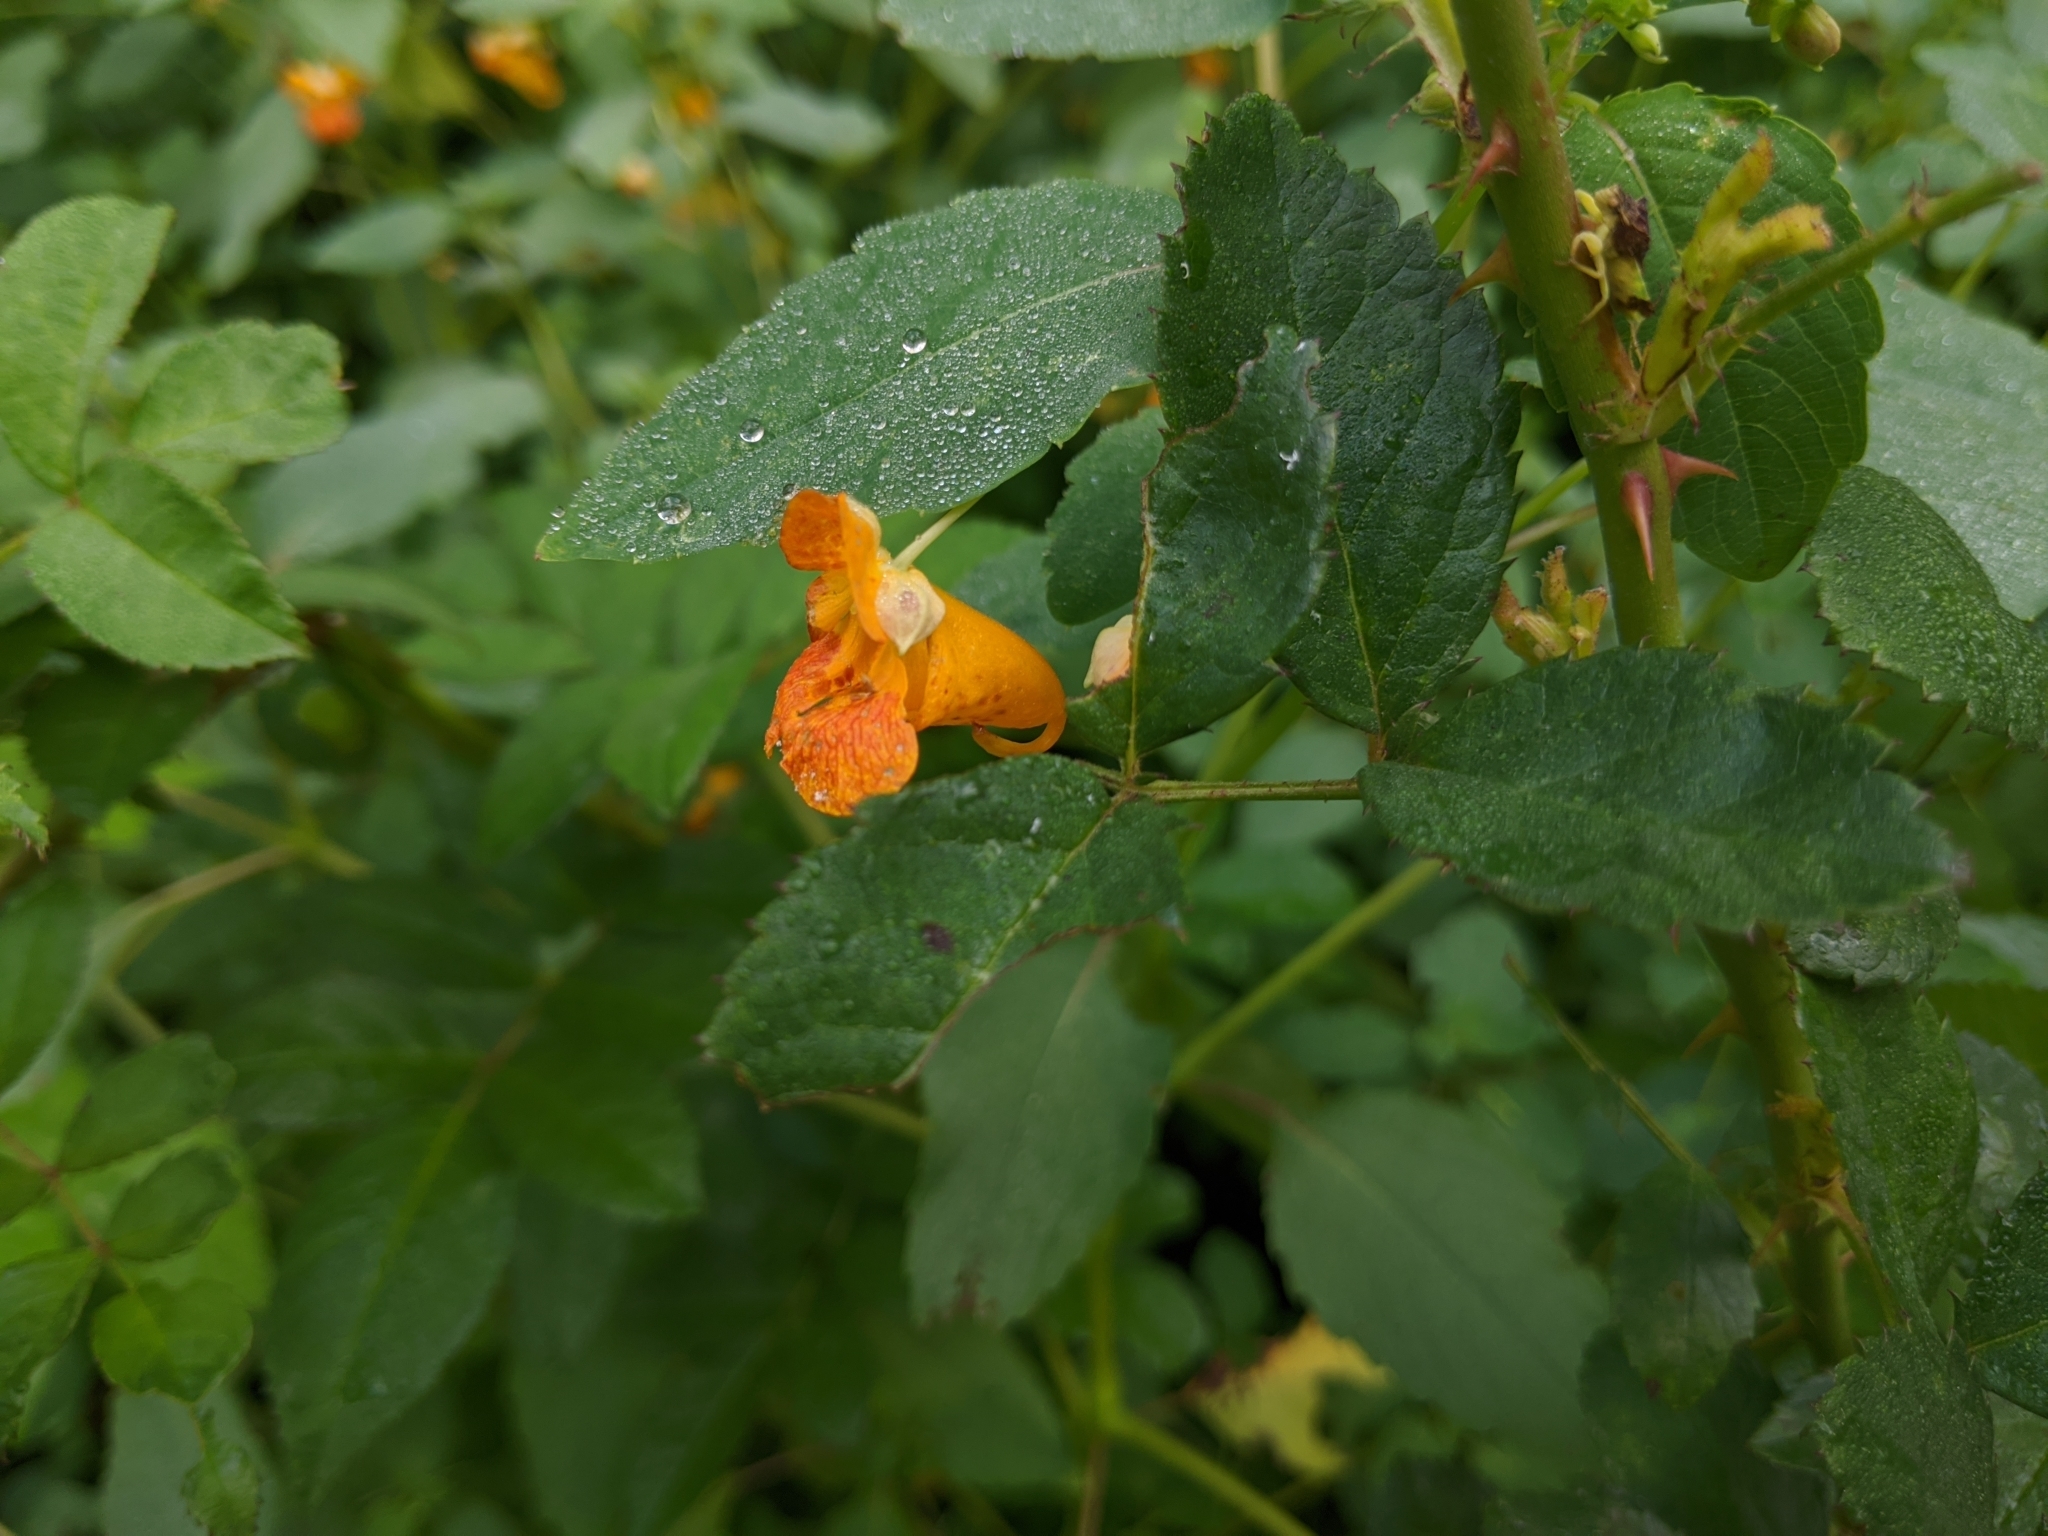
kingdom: Plantae
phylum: Tracheophyta
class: Magnoliopsida
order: Ericales
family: Balsaminaceae
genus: Impatiens
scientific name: Impatiens capensis
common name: Orange balsam
